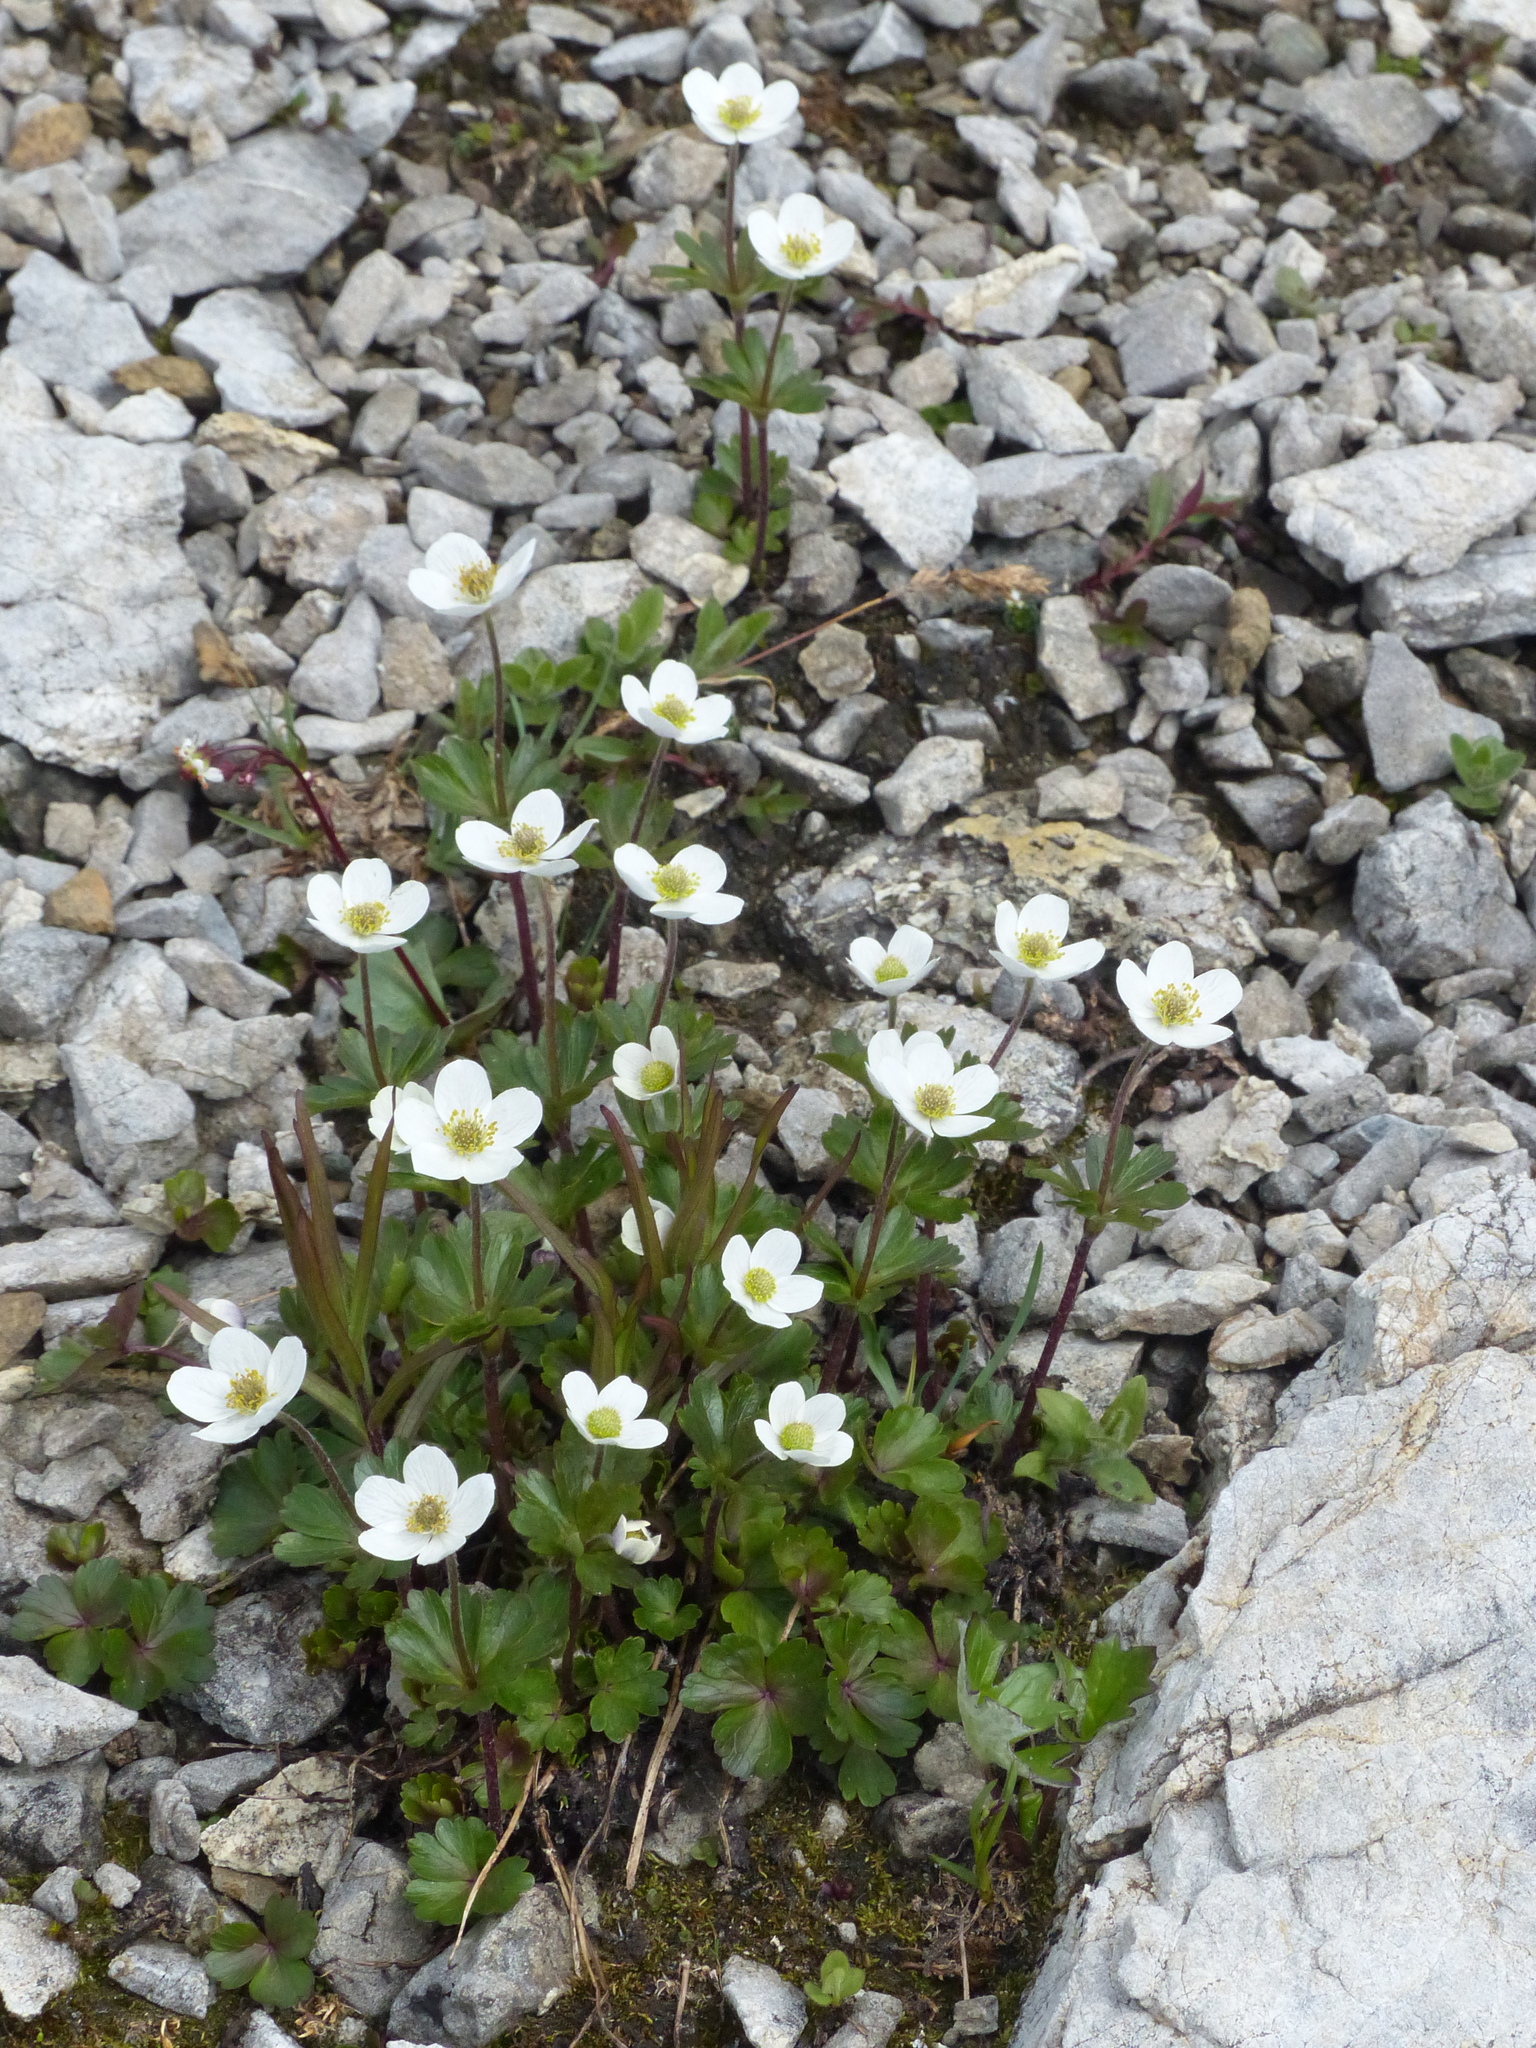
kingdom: Plantae
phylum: Tracheophyta
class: Magnoliopsida
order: Ranunculales
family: Ranunculaceae
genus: Anemone
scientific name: Anemone parviflora
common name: Northern anemone
